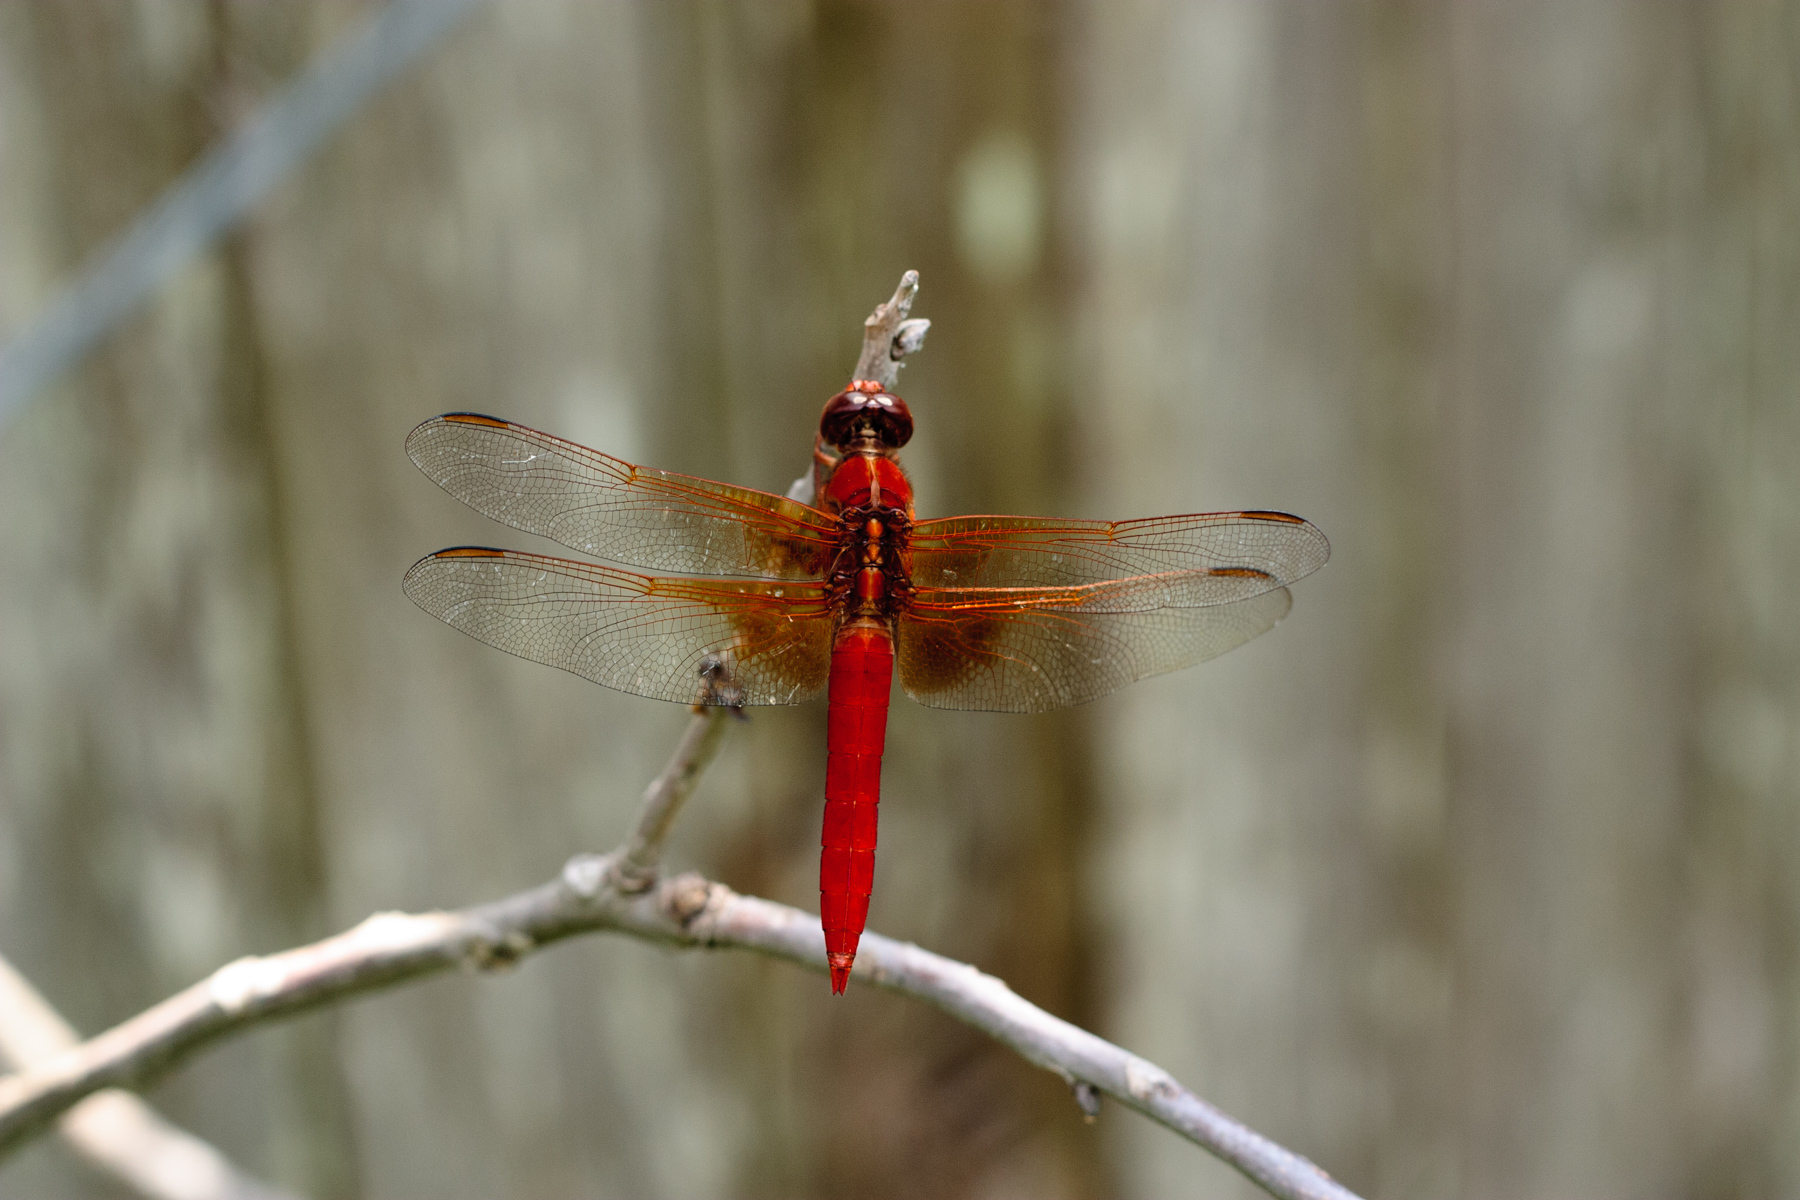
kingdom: Animalia
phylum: Arthropoda
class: Insecta
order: Odonata
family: Libellulidae
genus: Libellula
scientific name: Libellula croceipennis
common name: Neon skimmer
